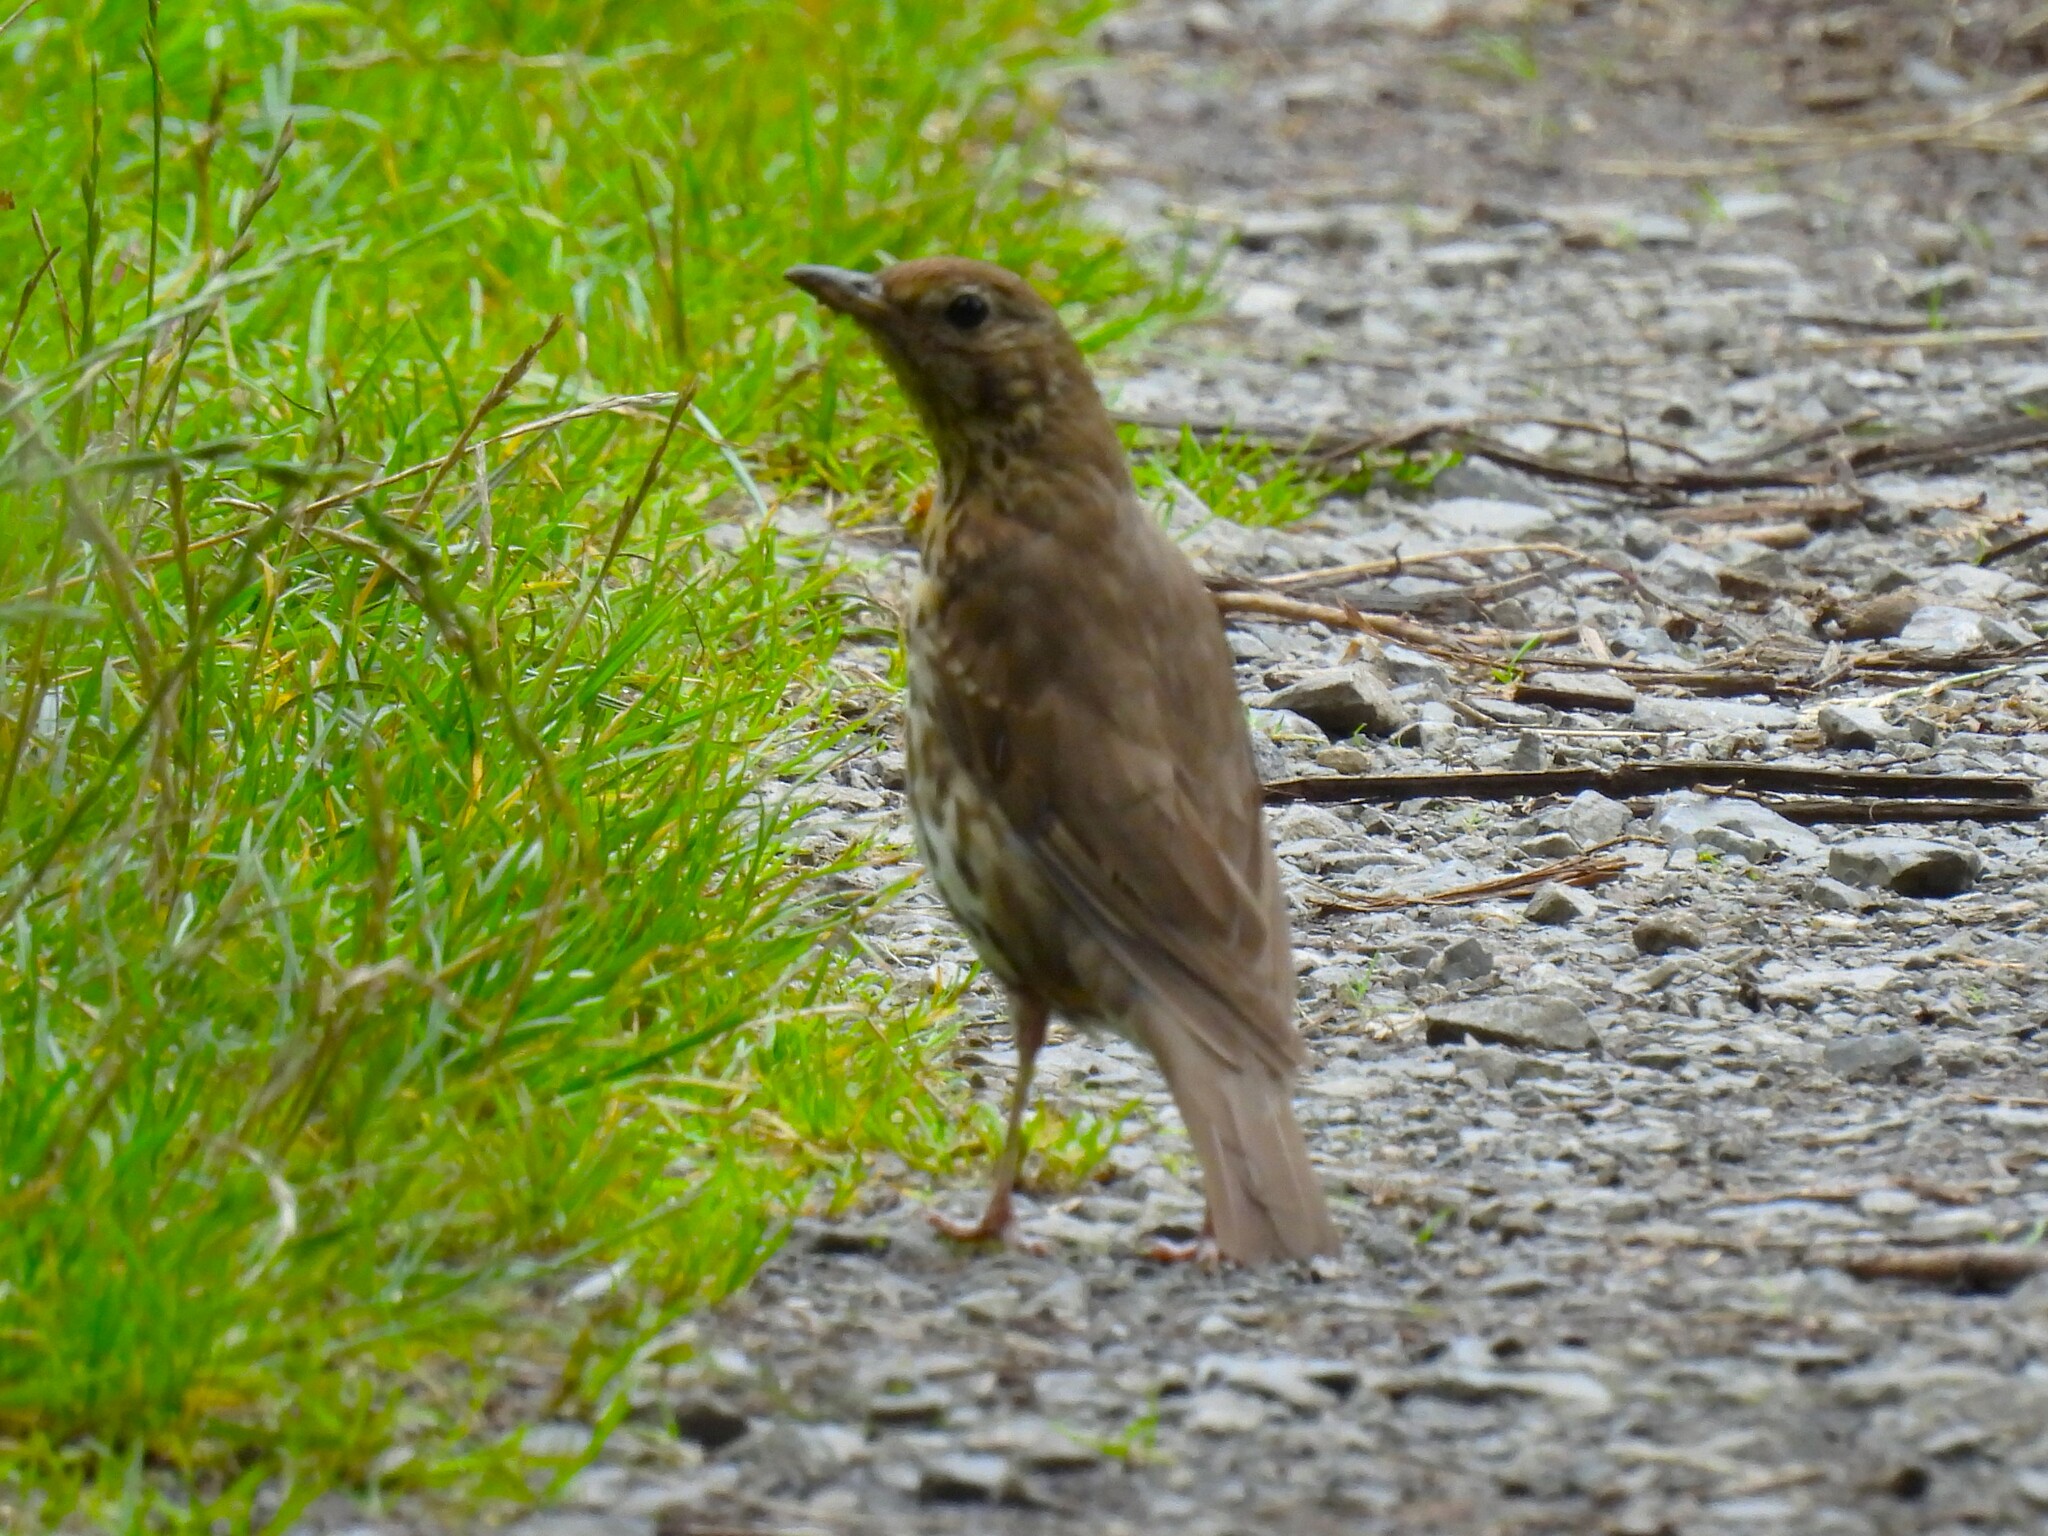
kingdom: Animalia
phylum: Chordata
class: Aves
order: Passeriformes
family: Turdidae
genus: Turdus
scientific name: Turdus philomelos
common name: Song thrush
